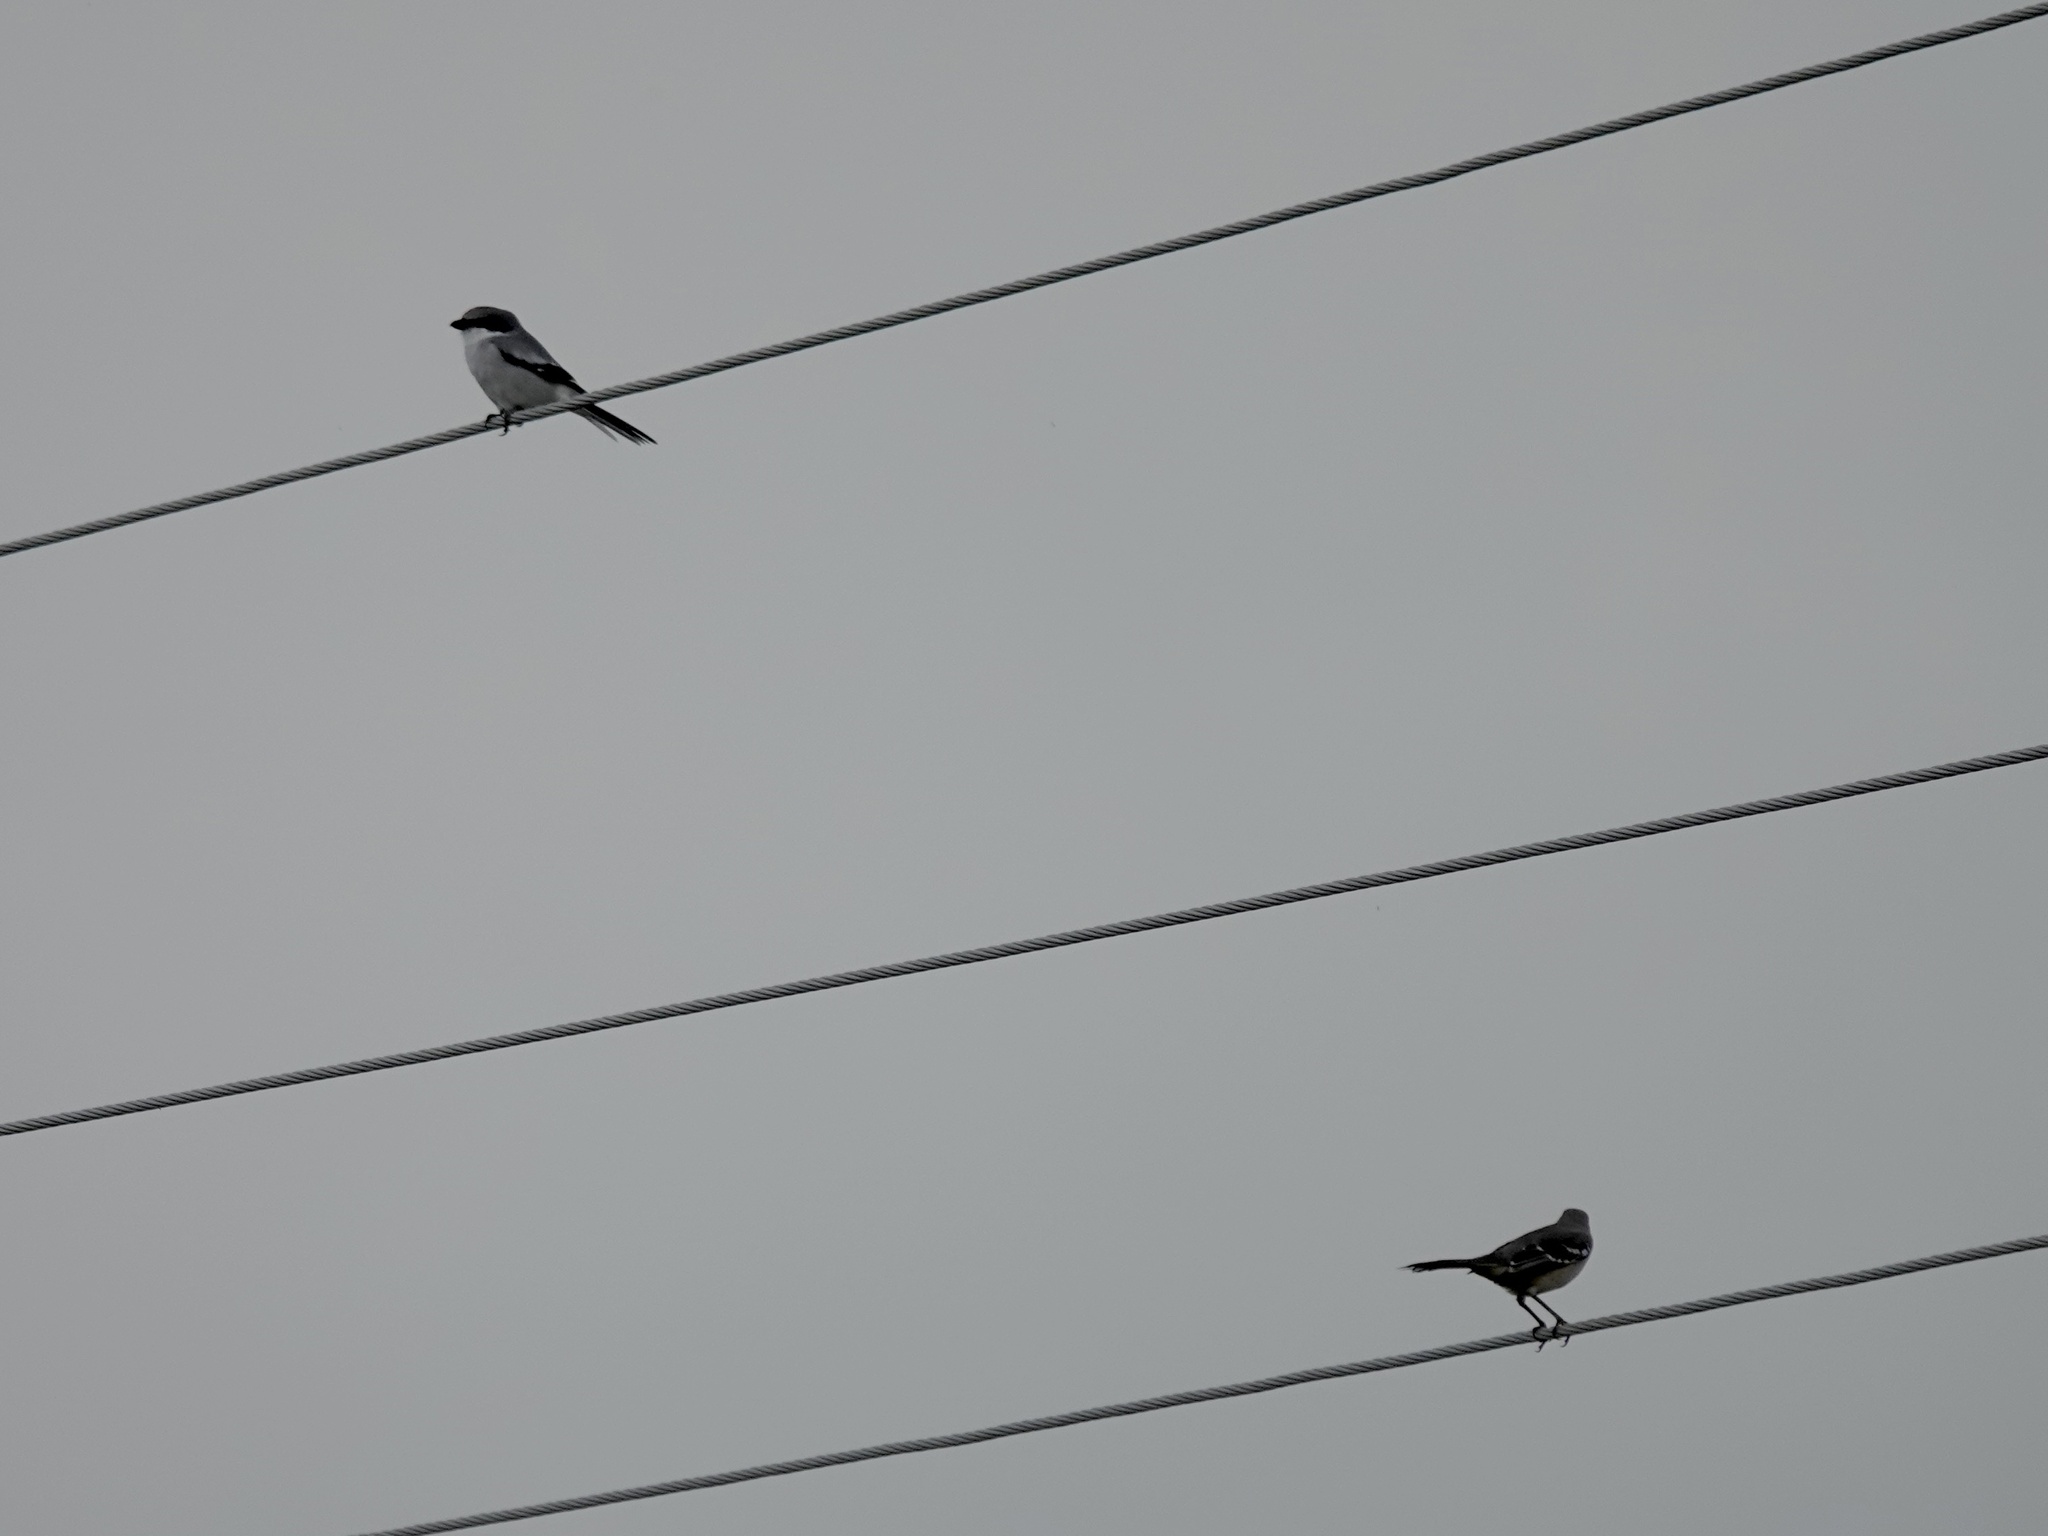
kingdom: Animalia
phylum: Chordata
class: Aves
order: Passeriformes
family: Mimidae
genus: Mimus
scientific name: Mimus polyglottos
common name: Northern mockingbird
